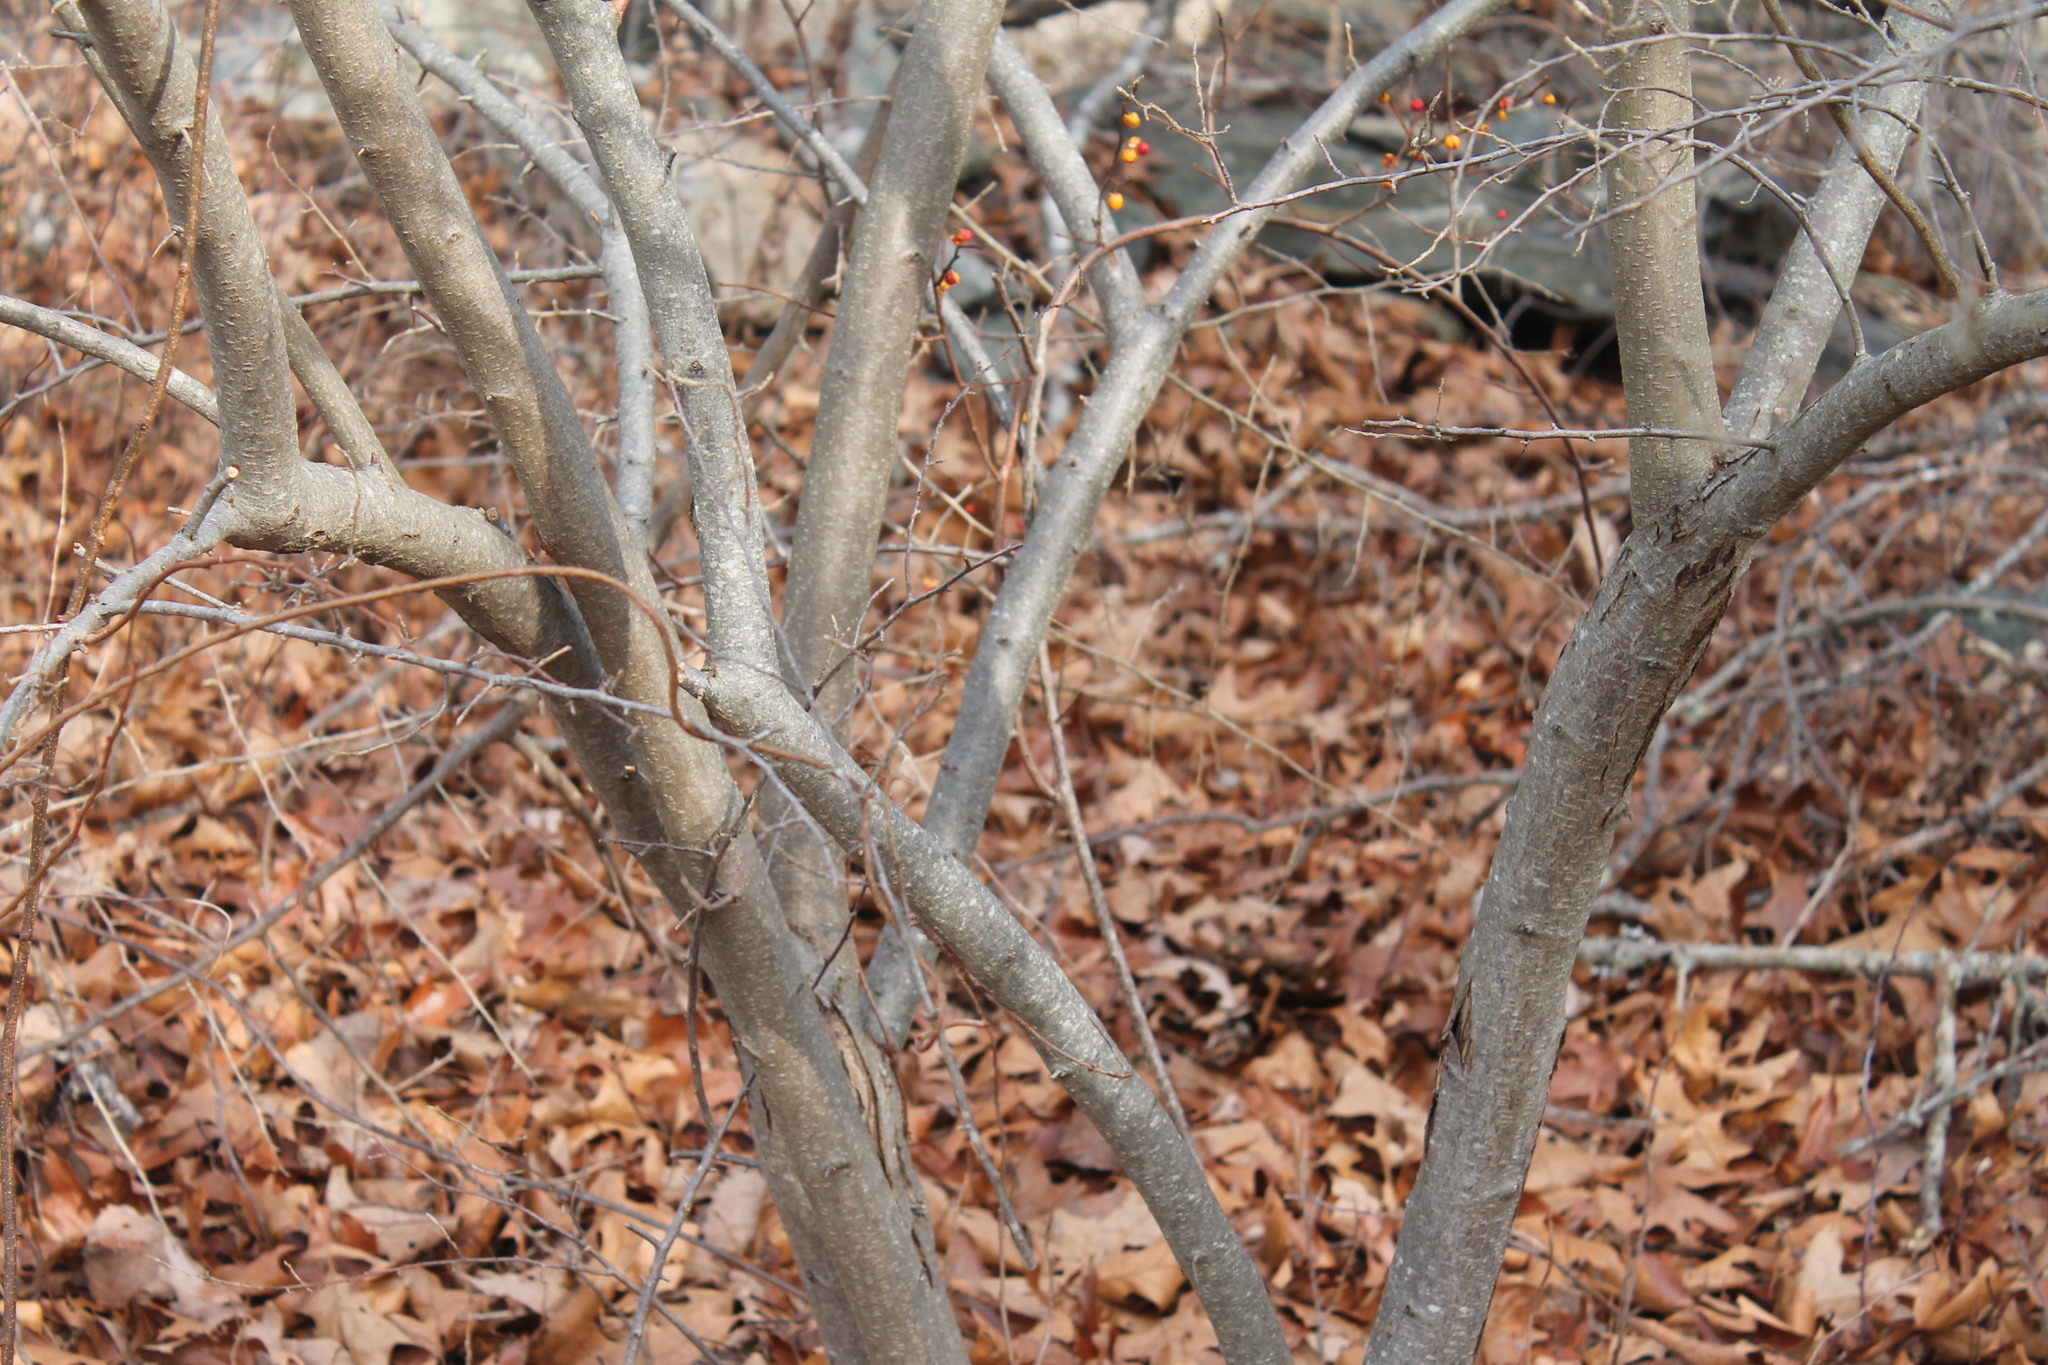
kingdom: Plantae
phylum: Tracheophyta
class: Magnoliopsida
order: Rosales
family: Elaeagnaceae
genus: Elaeagnus
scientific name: Elaeagnus umbellata
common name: Autumn olive
